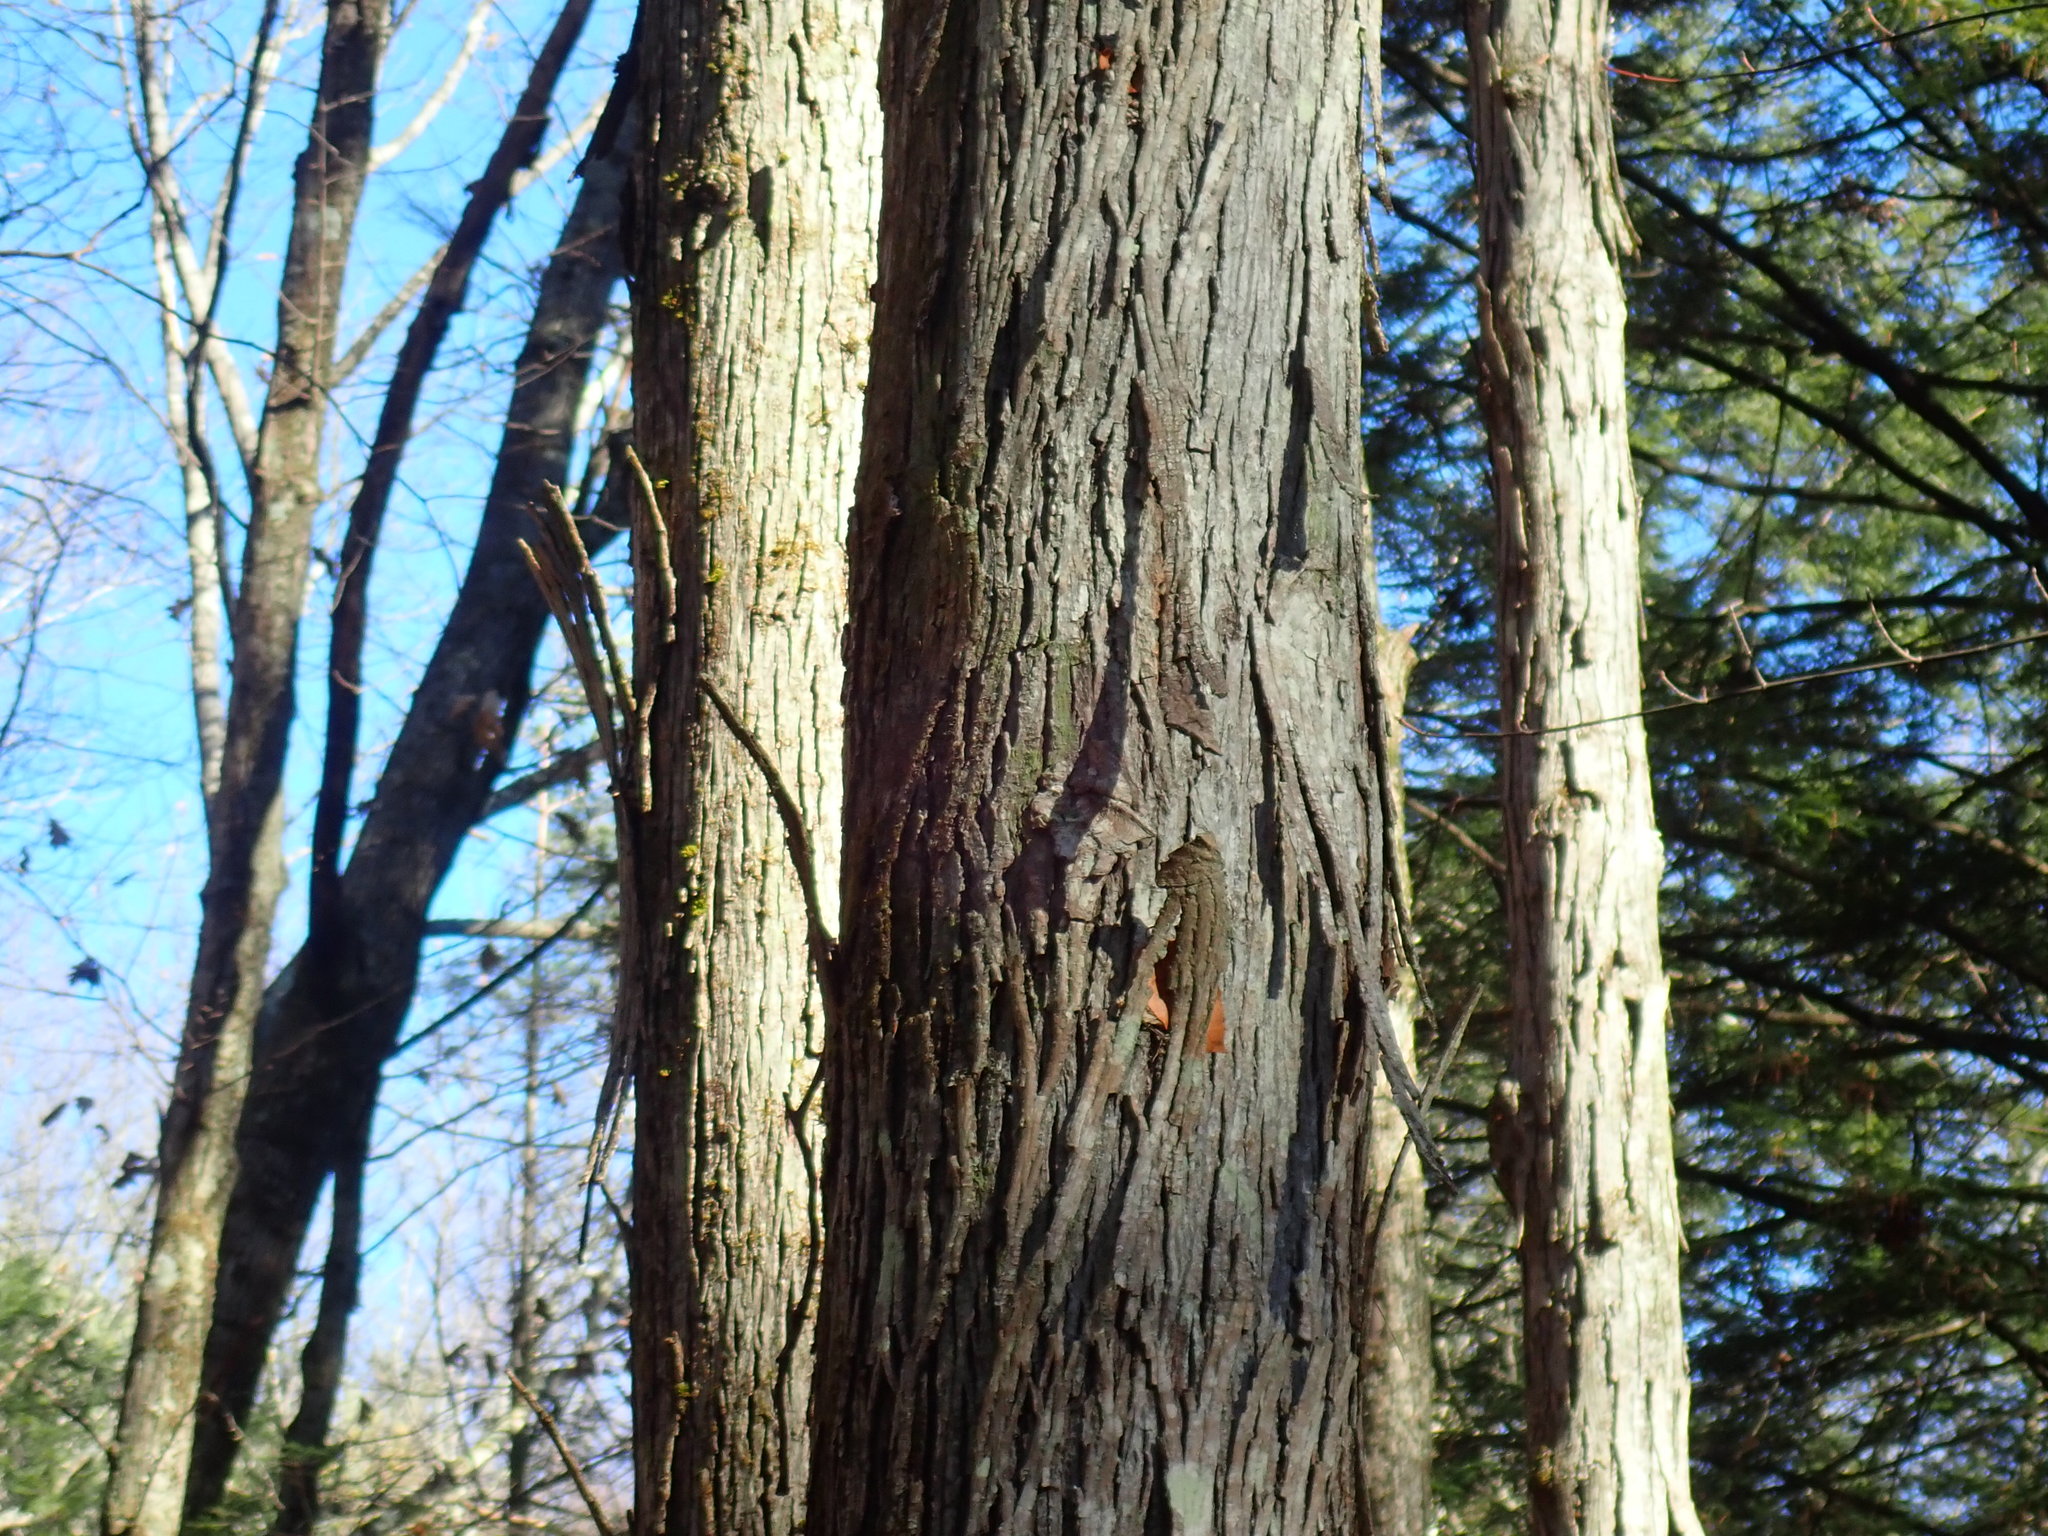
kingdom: Plantae
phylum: Tracheophyta
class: Magnoliopsida
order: Fagales
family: Juglandaceae
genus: Carya
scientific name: Carya ovata
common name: Shagbark hickory
